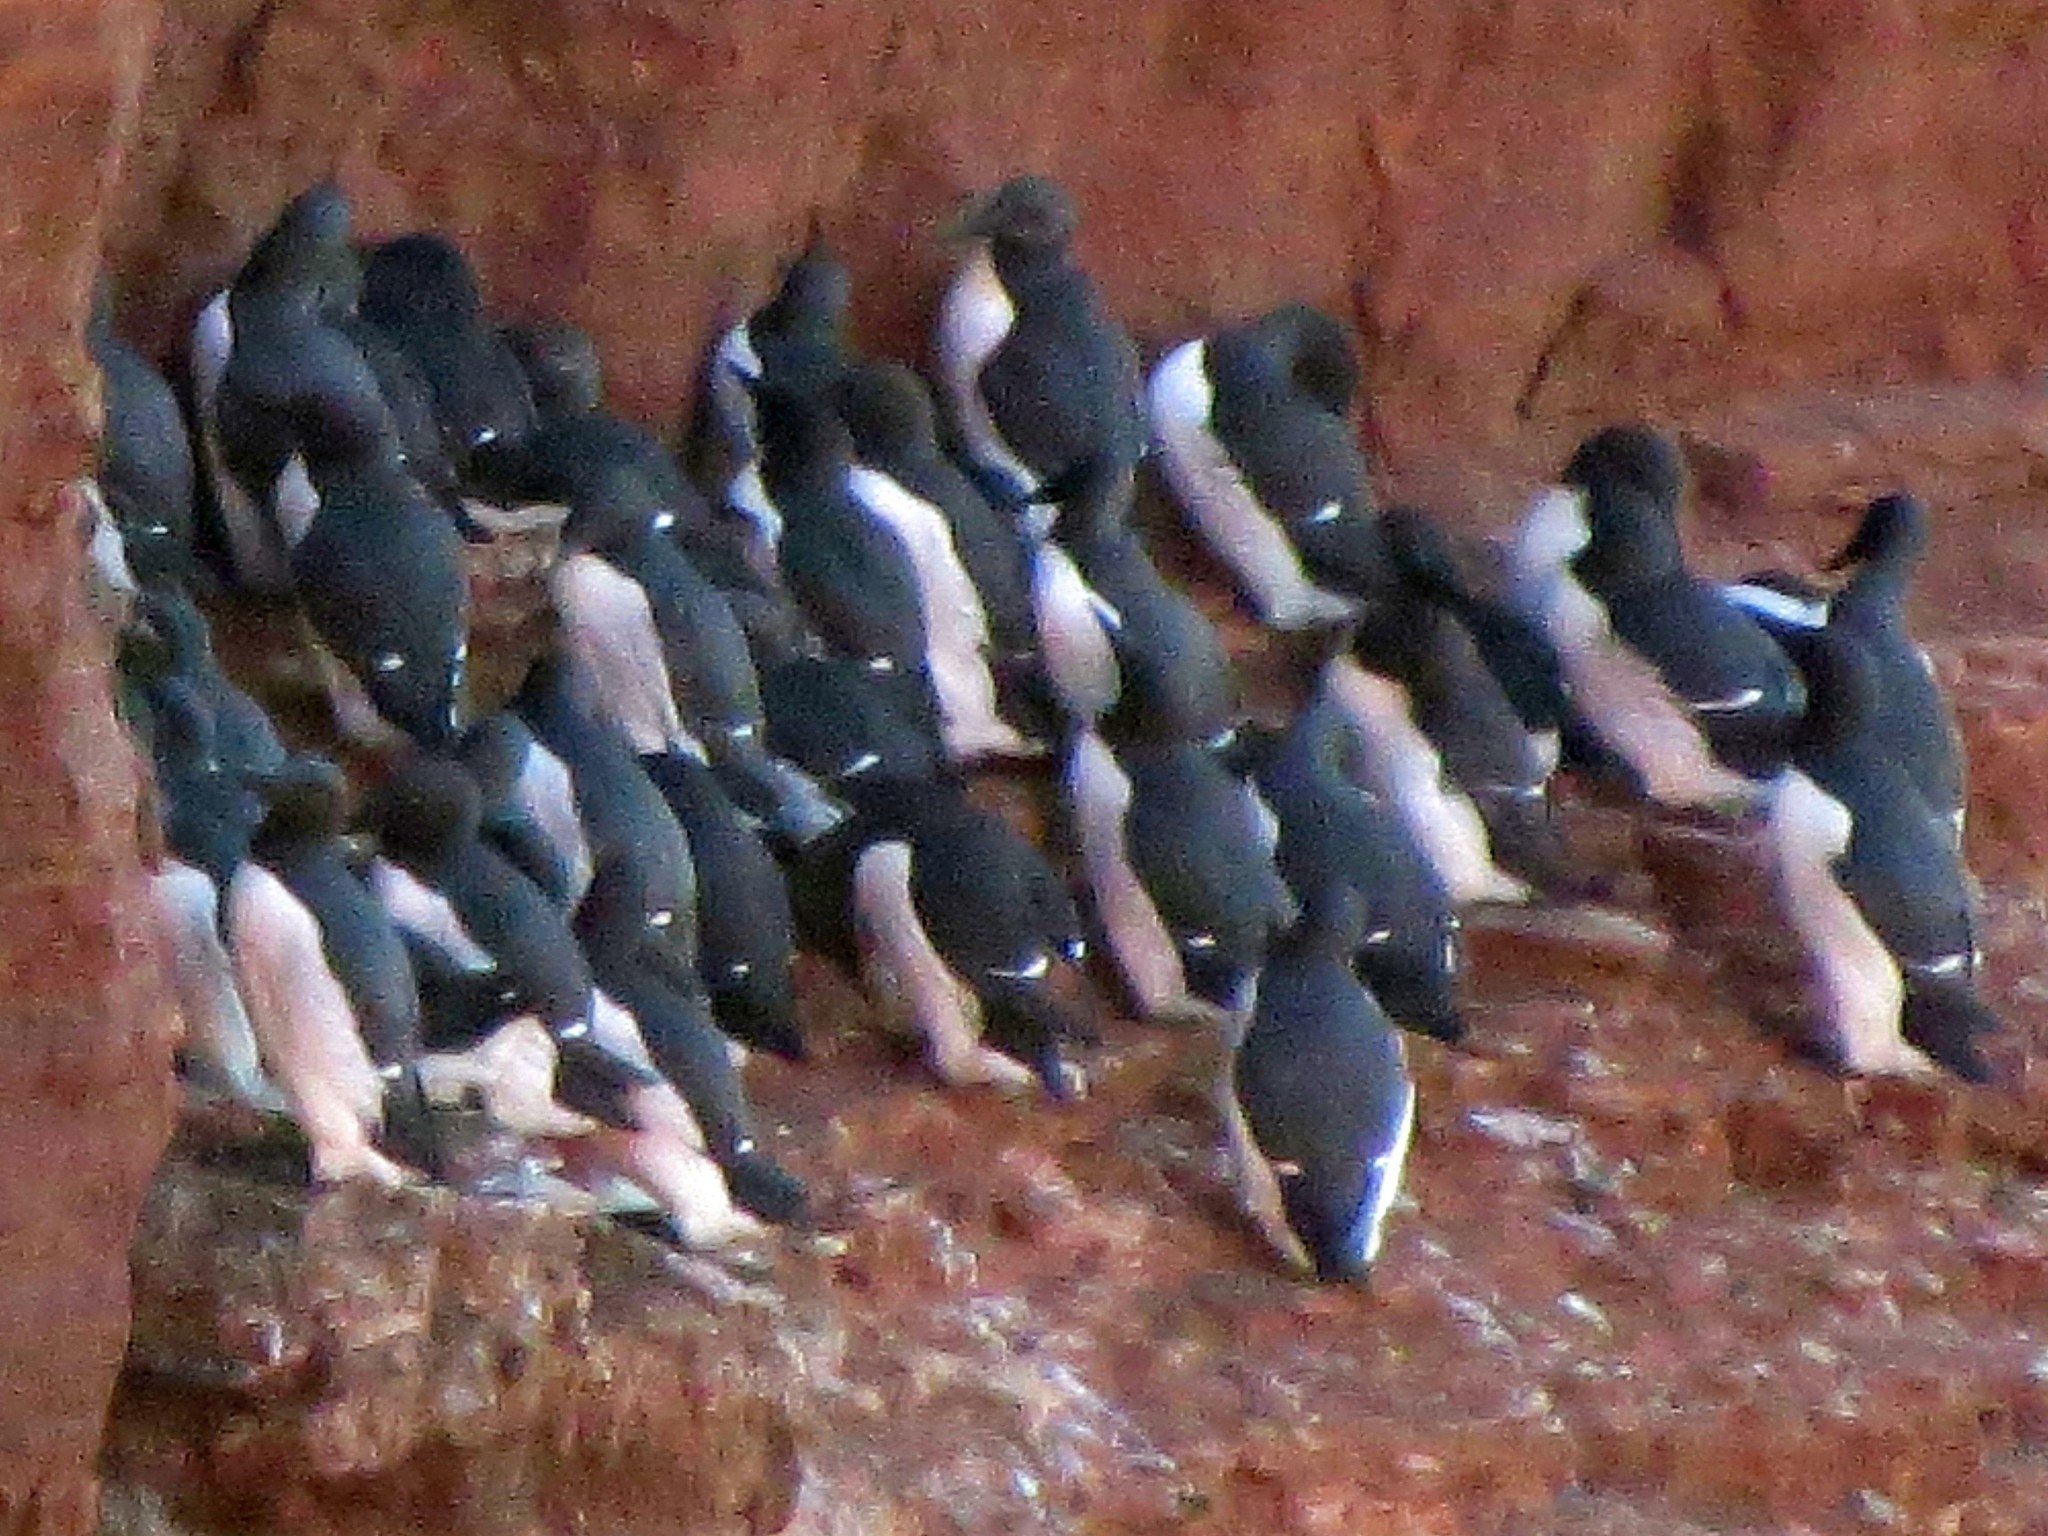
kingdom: Animalia
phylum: Chordata
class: Aves
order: Charadriiformes
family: Alcidae
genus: Uria
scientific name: Uria aalge
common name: Common murre
